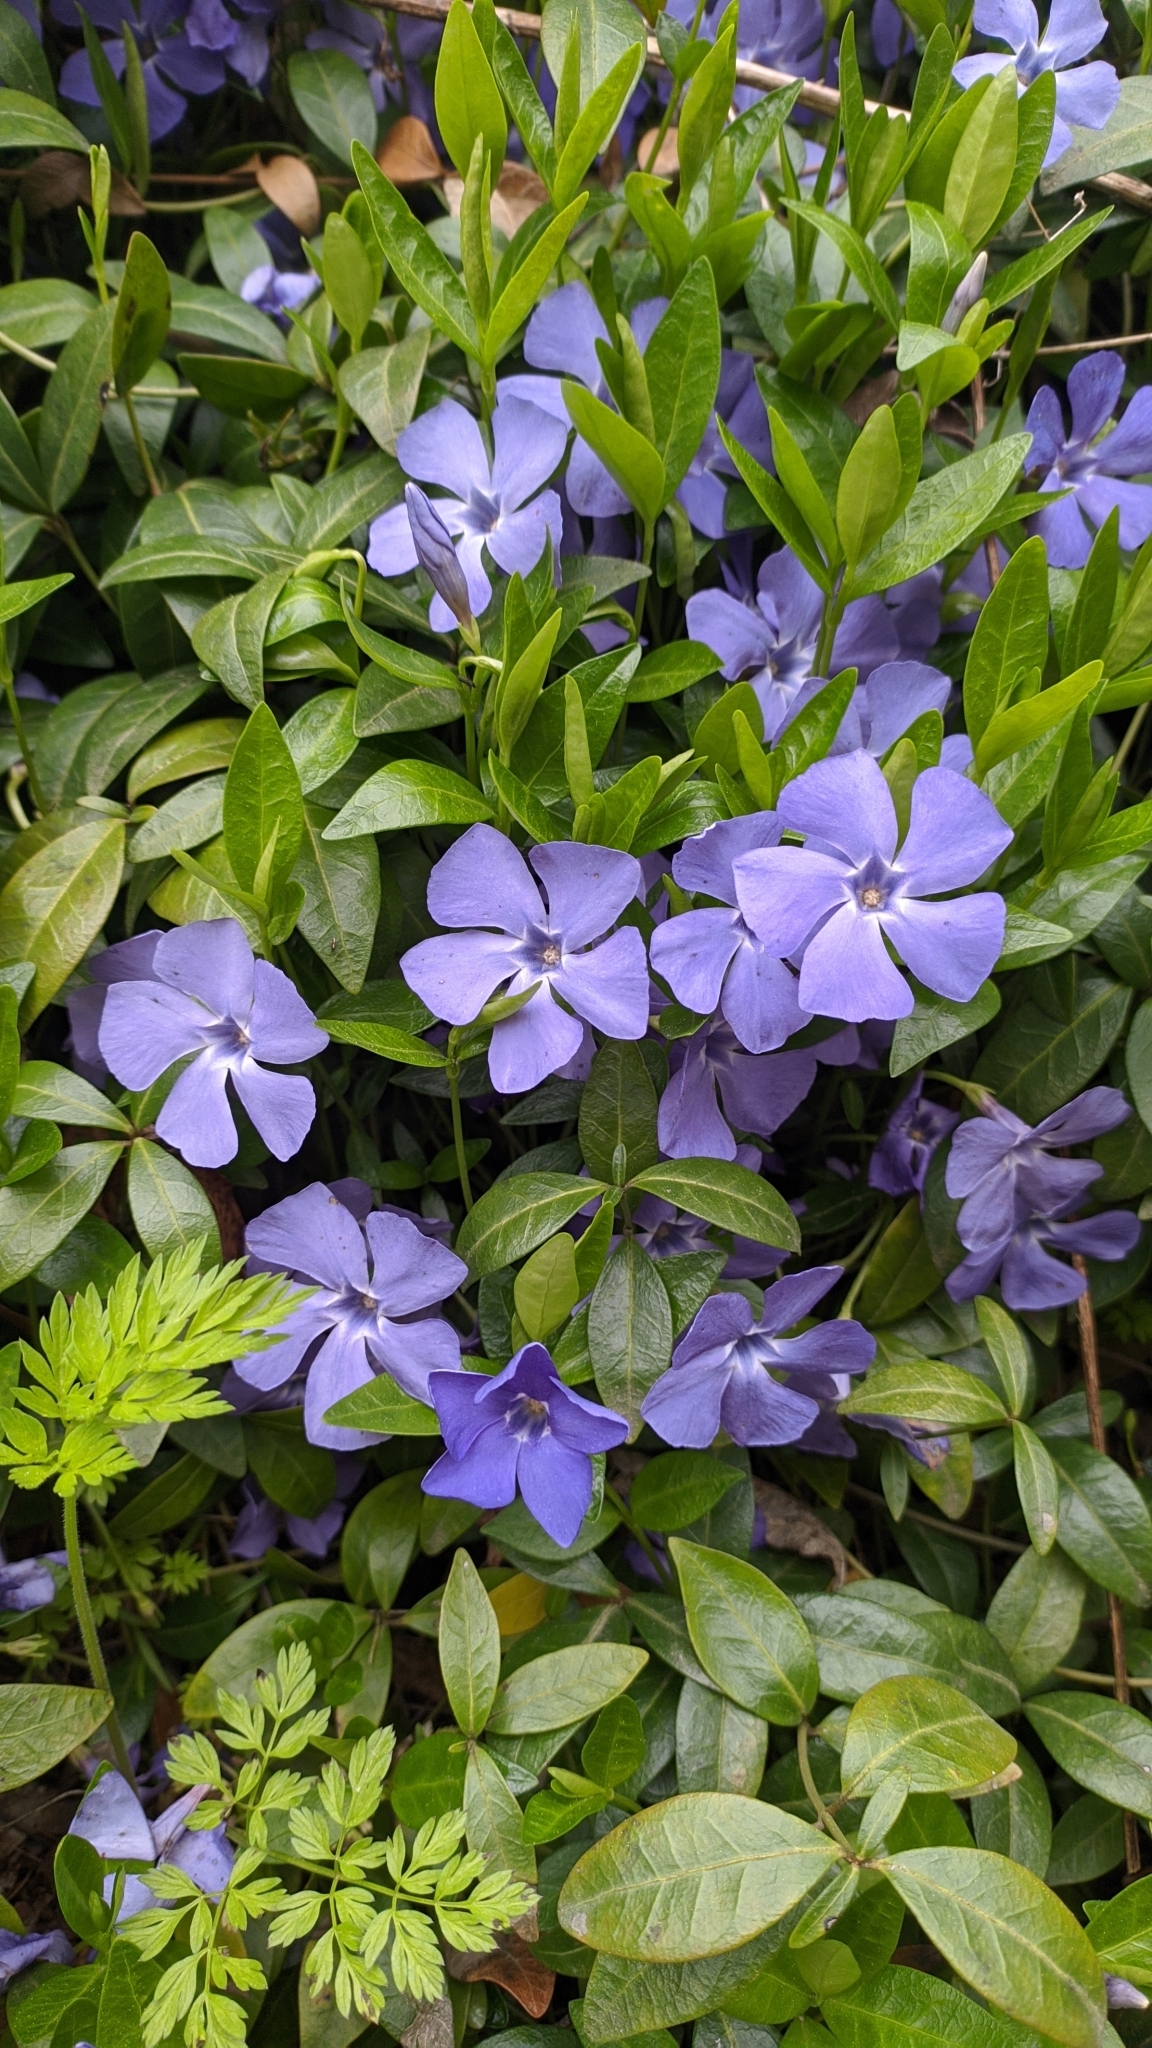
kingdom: Plantae
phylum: Tracheophyta
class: Magnoliopsida
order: Gentianales
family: Apocynaceae
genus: Vinca
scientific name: Vinca minor
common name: Lesser periwinkle
